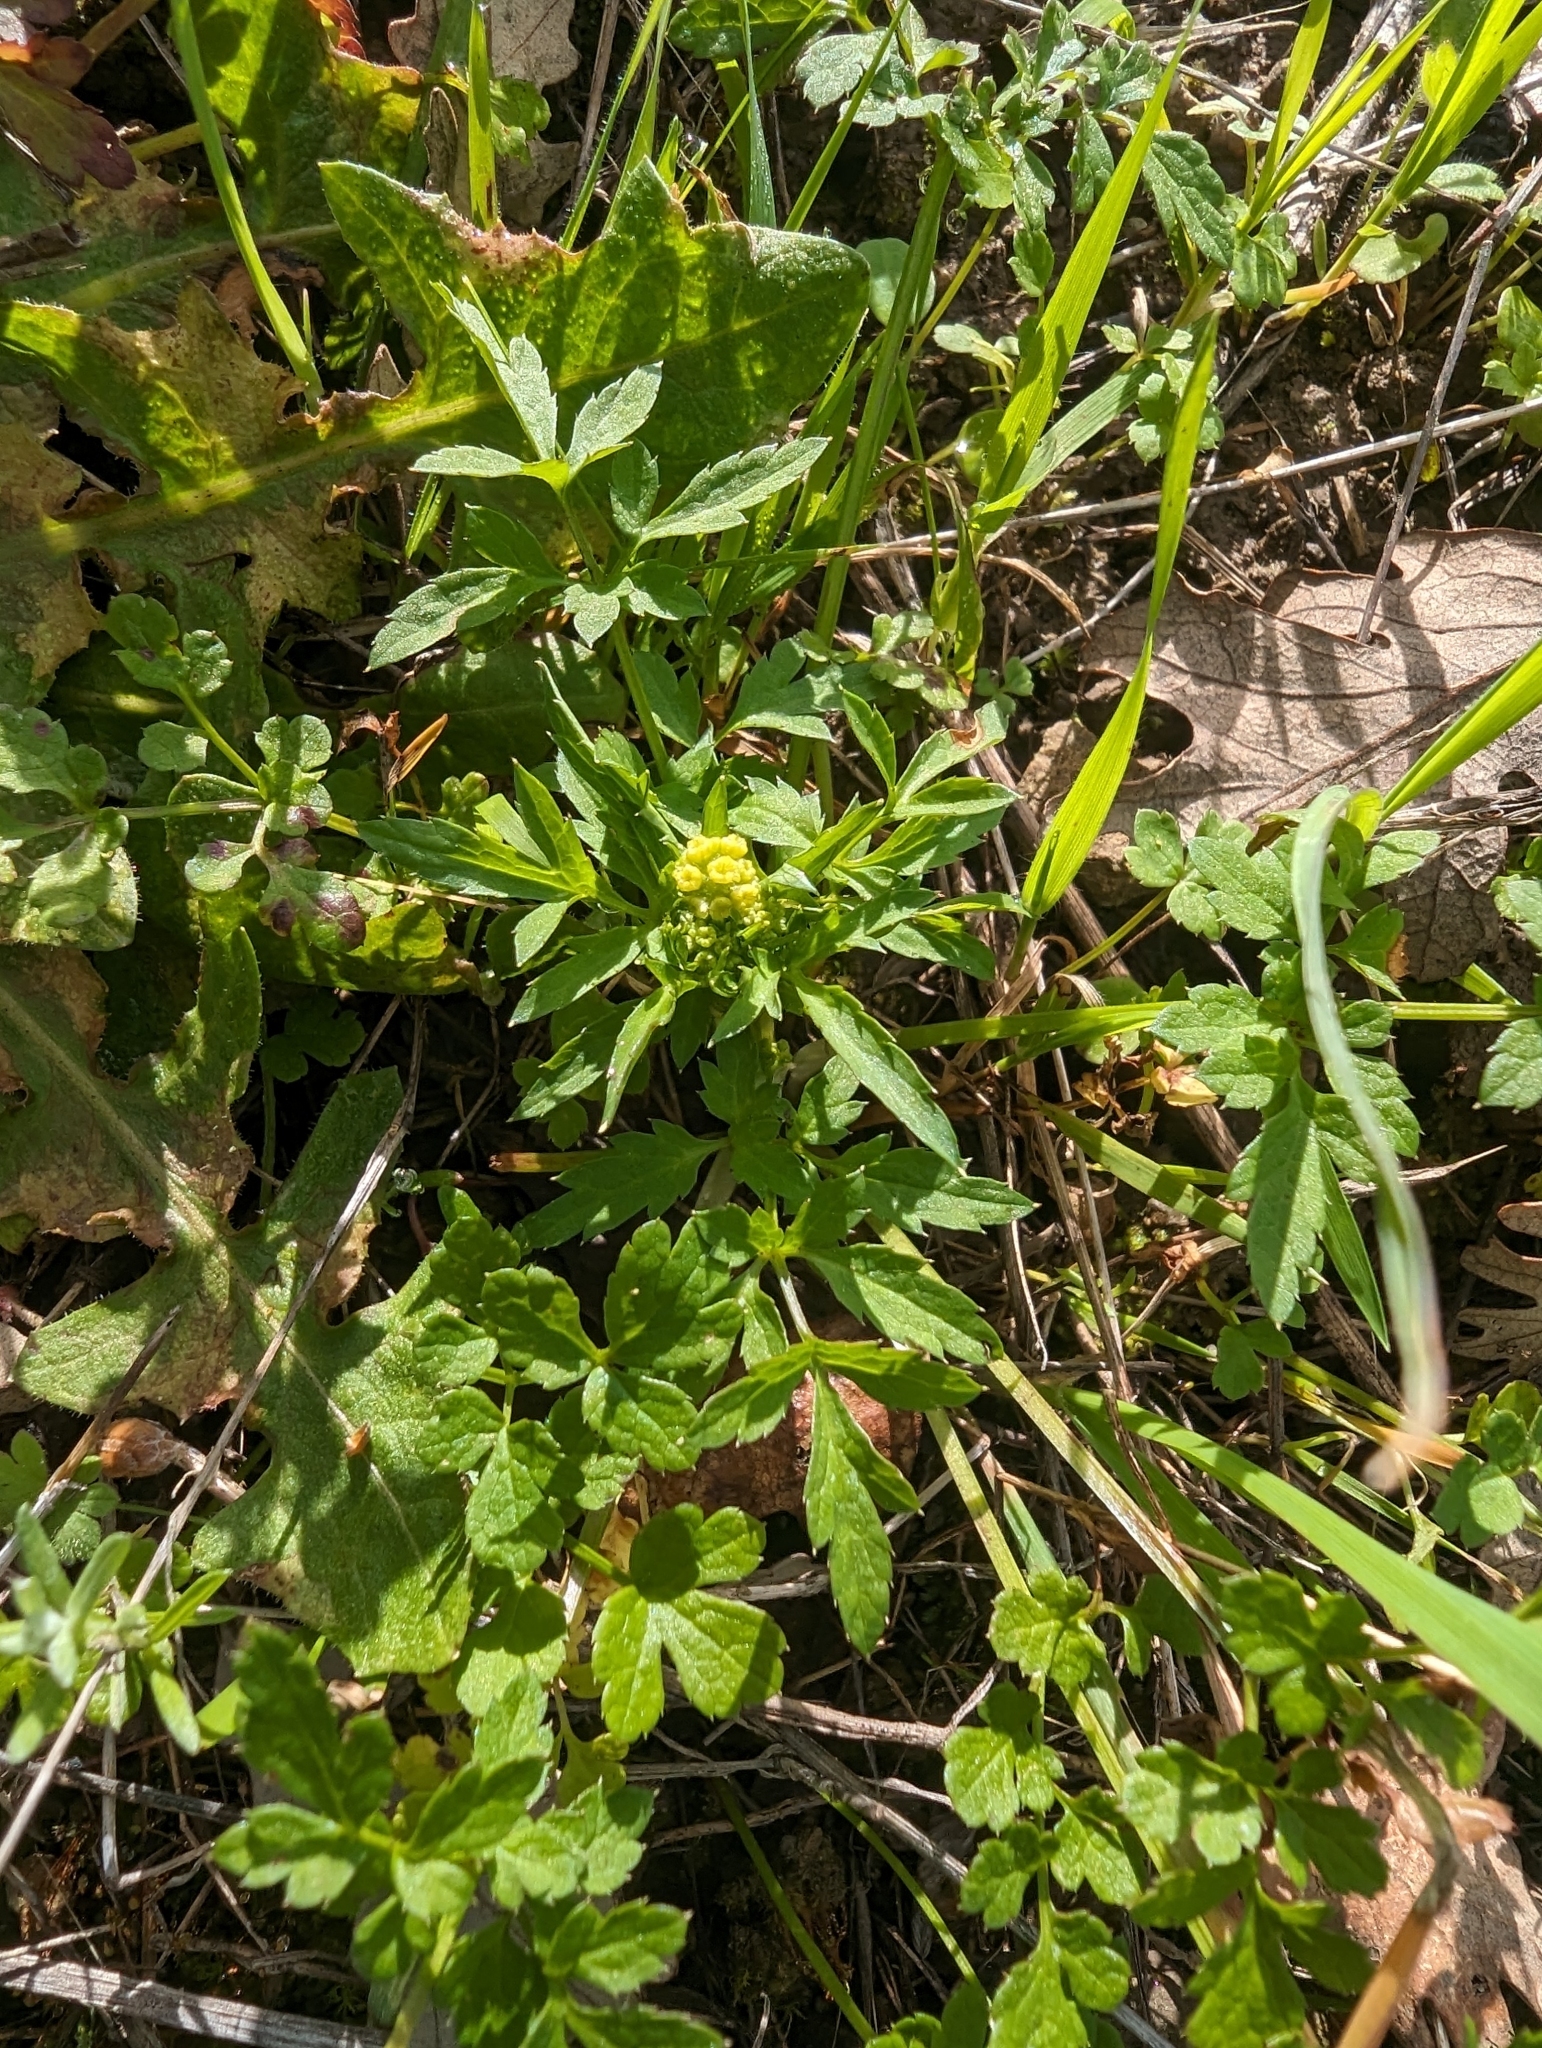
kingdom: Plantae
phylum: Tracheophyta
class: Magnoliopsida
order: Apiales
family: Apiaceae
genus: Sanicula
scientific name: Sanicula bipinnata
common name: Poison sanicle
